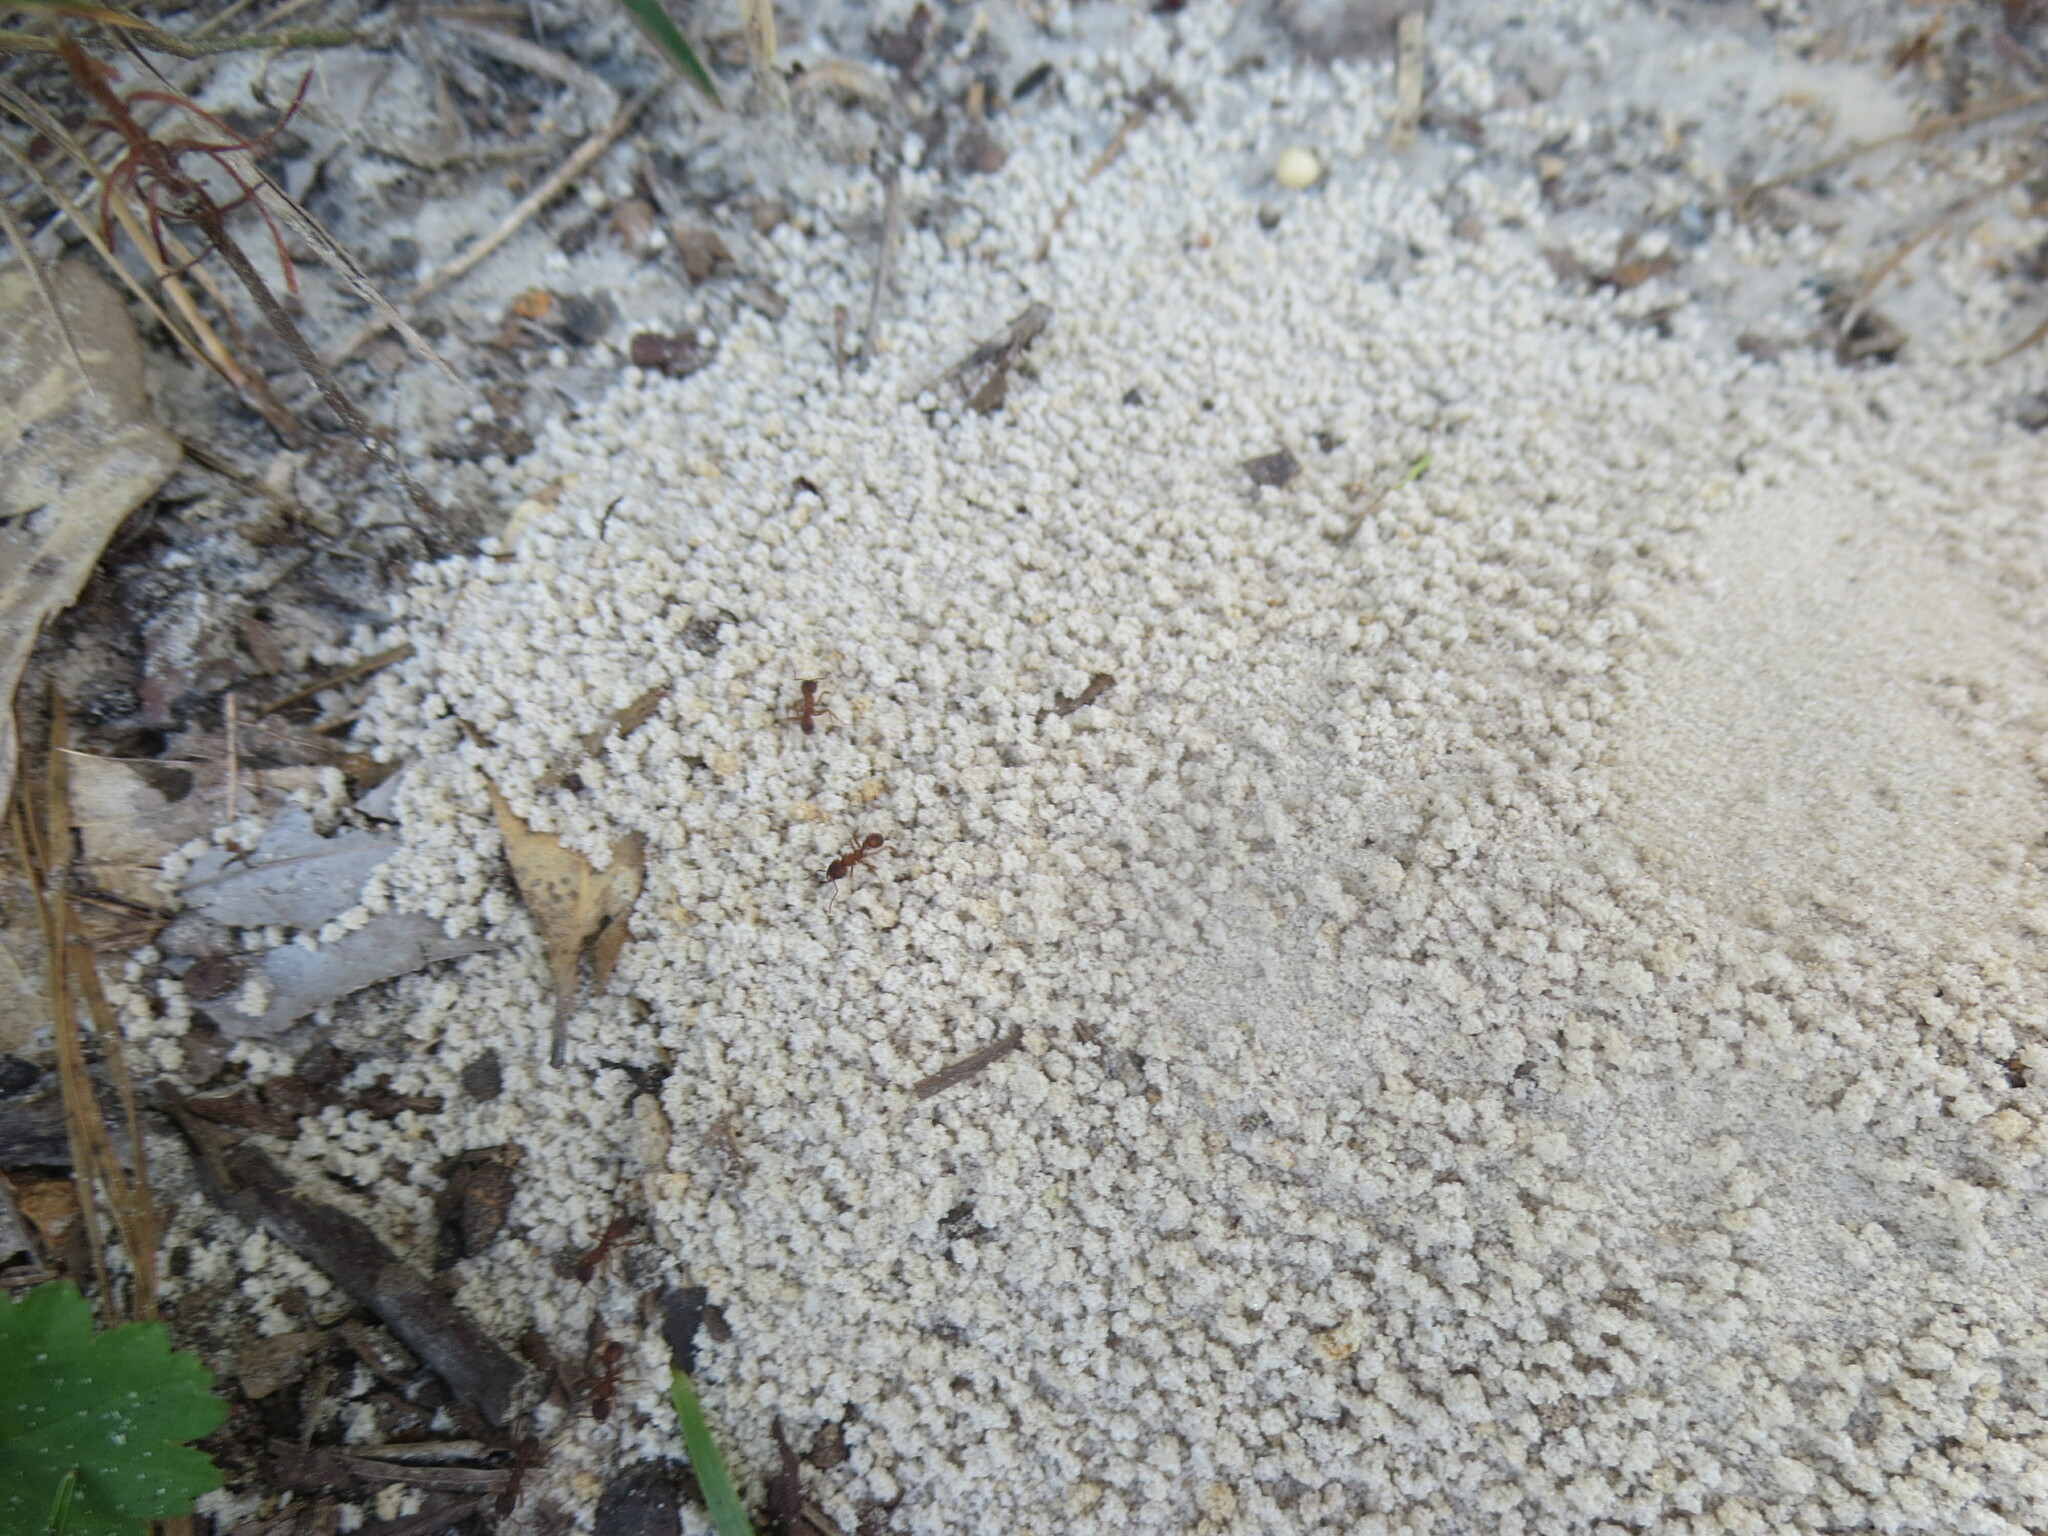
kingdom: Animalia
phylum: Arthropoda
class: Insecta
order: Hymenoptera
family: Formicidae
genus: Trachymyrmex
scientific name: Trachymyrmex septentrionalis
